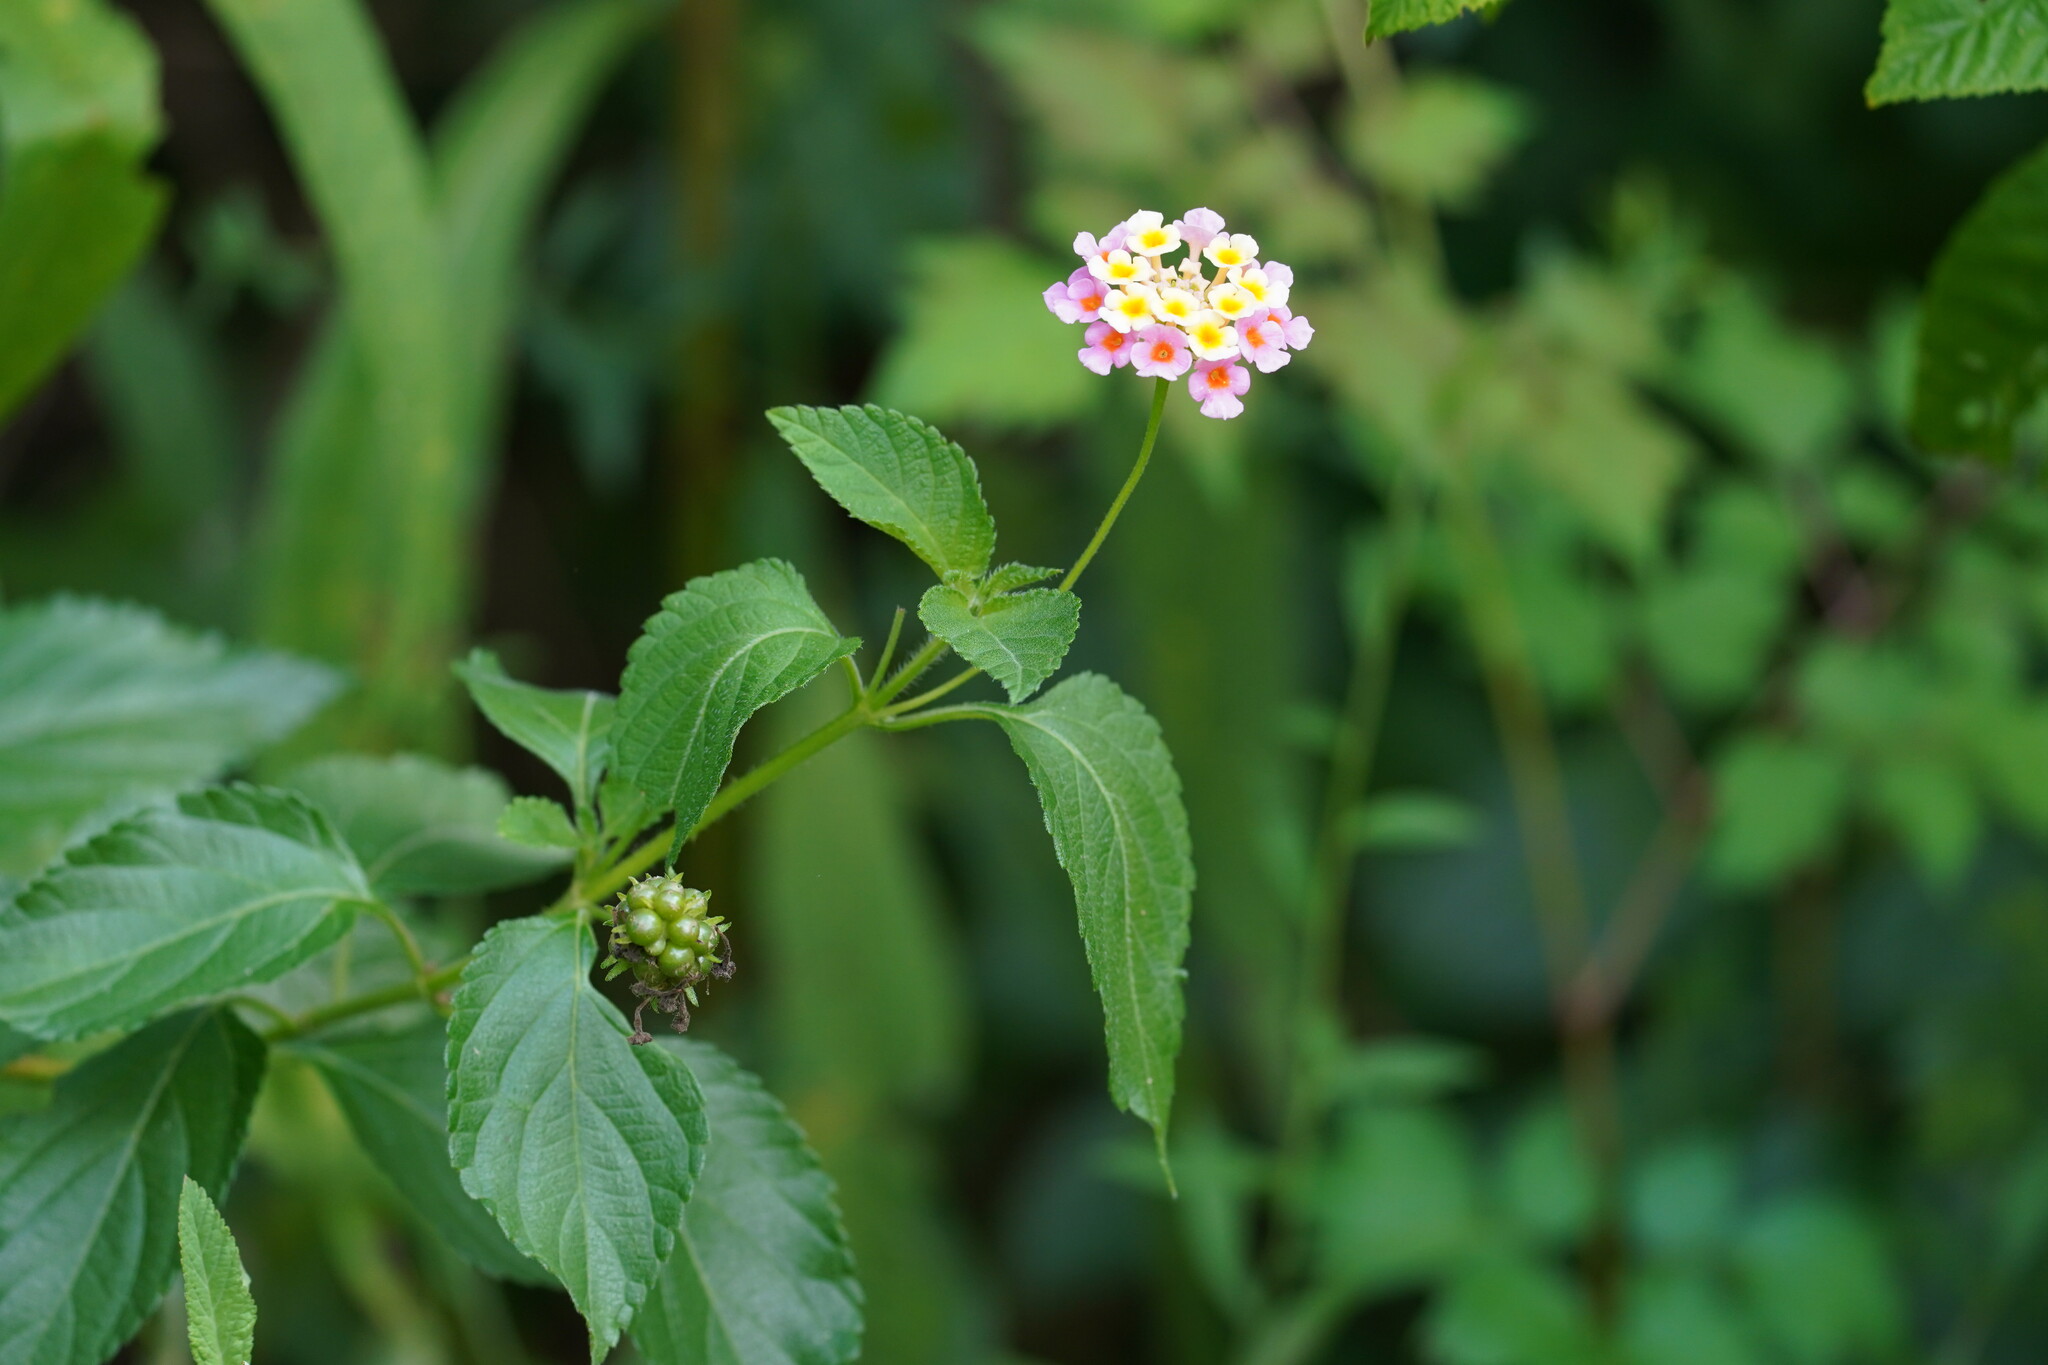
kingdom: Plantae
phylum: Tracheophyta
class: Magnoliopsida
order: Lamiales
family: Verbenaceae
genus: Lantana
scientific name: Lantana strigocamara
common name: Lantana
